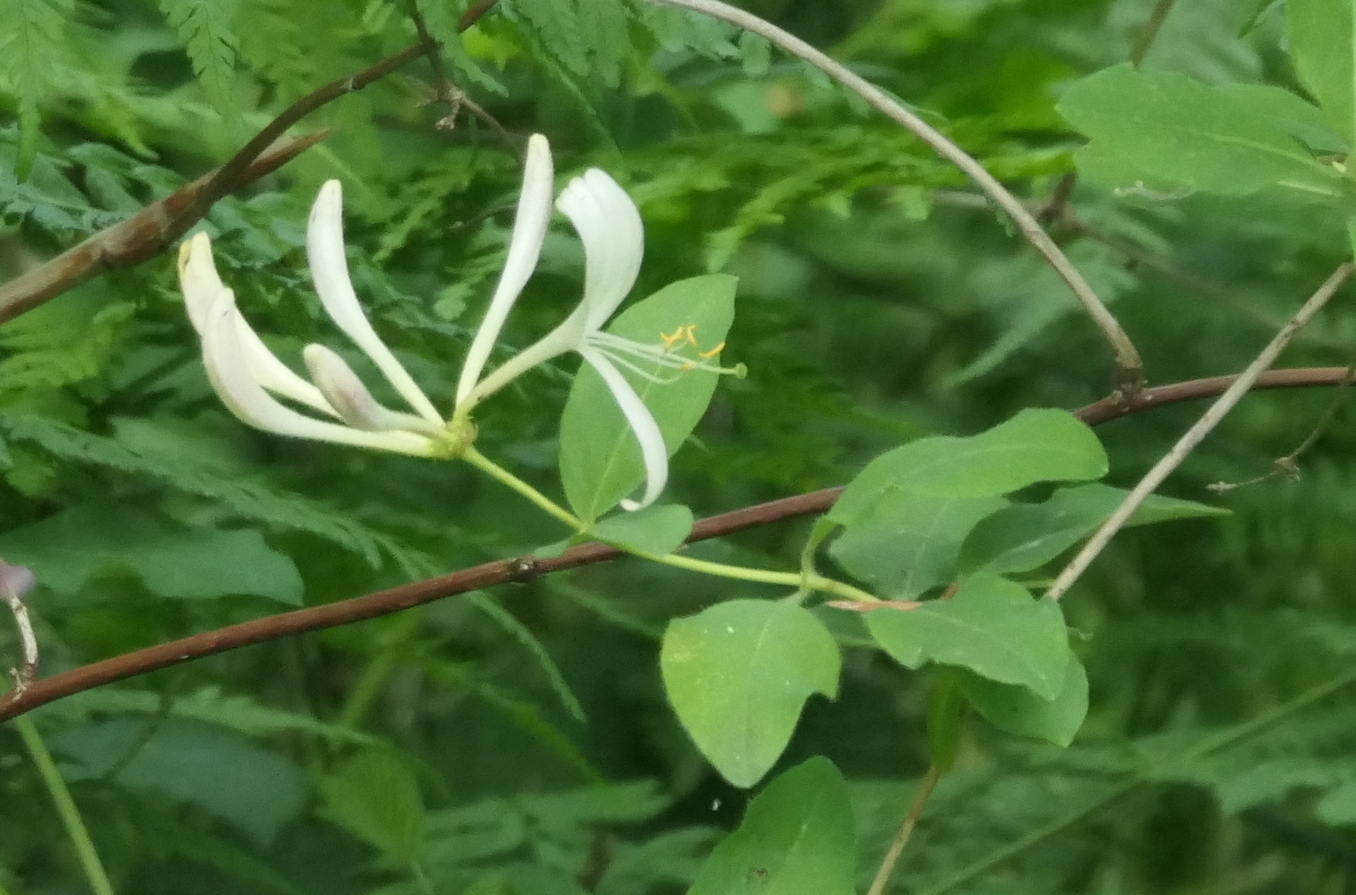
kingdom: Plantae
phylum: Tracheophyta
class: Magnoliopsida
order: Dipsacales
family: Caprifoliaceae
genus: Lonicera
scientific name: Lonicera periclymenum
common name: European honeysuckle
